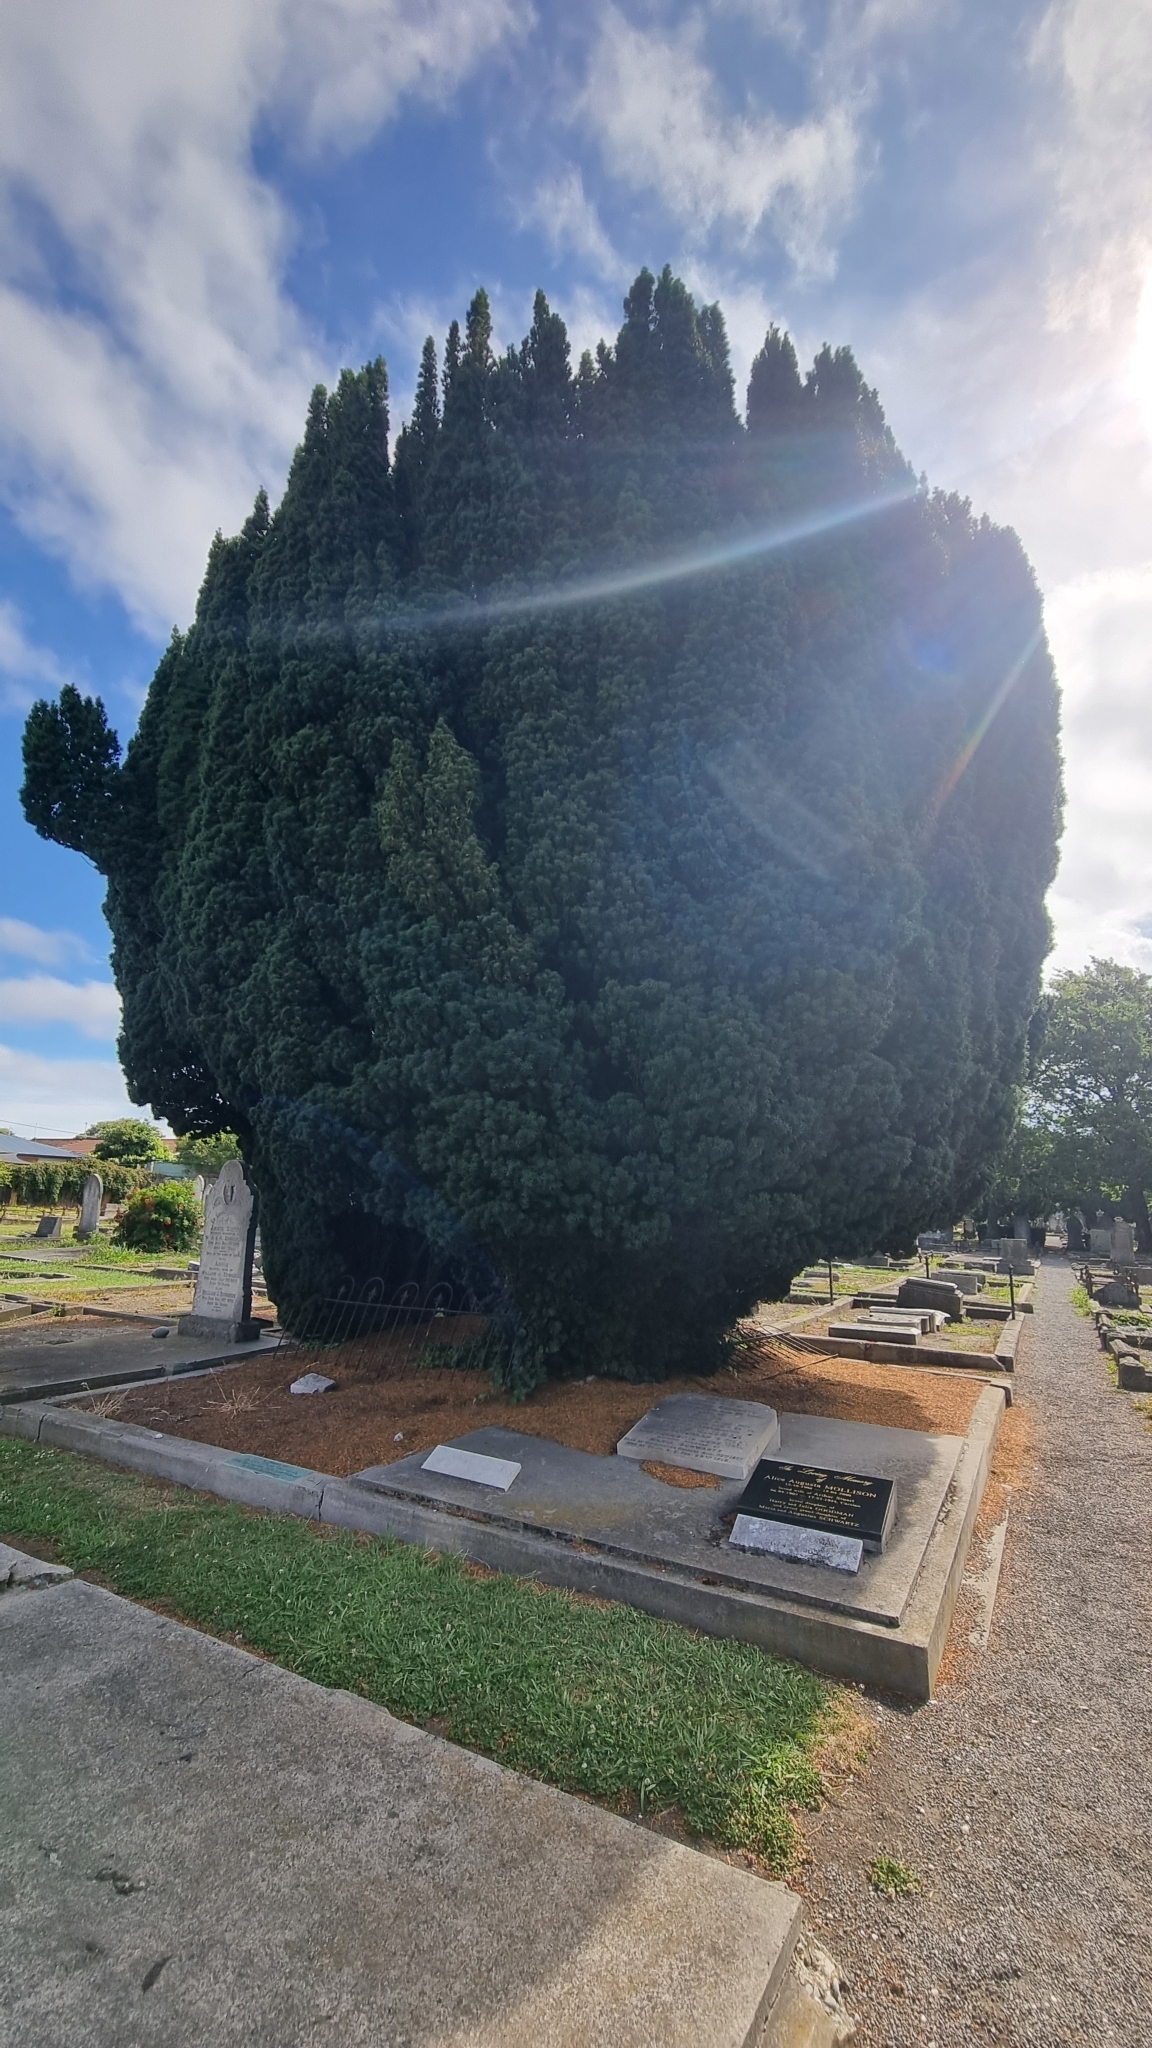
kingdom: Plantae
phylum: Tracheophyta
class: Pinopsida
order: Pinales
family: Taxaceae
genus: Taxus
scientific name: Taxus baccata
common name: Yew
